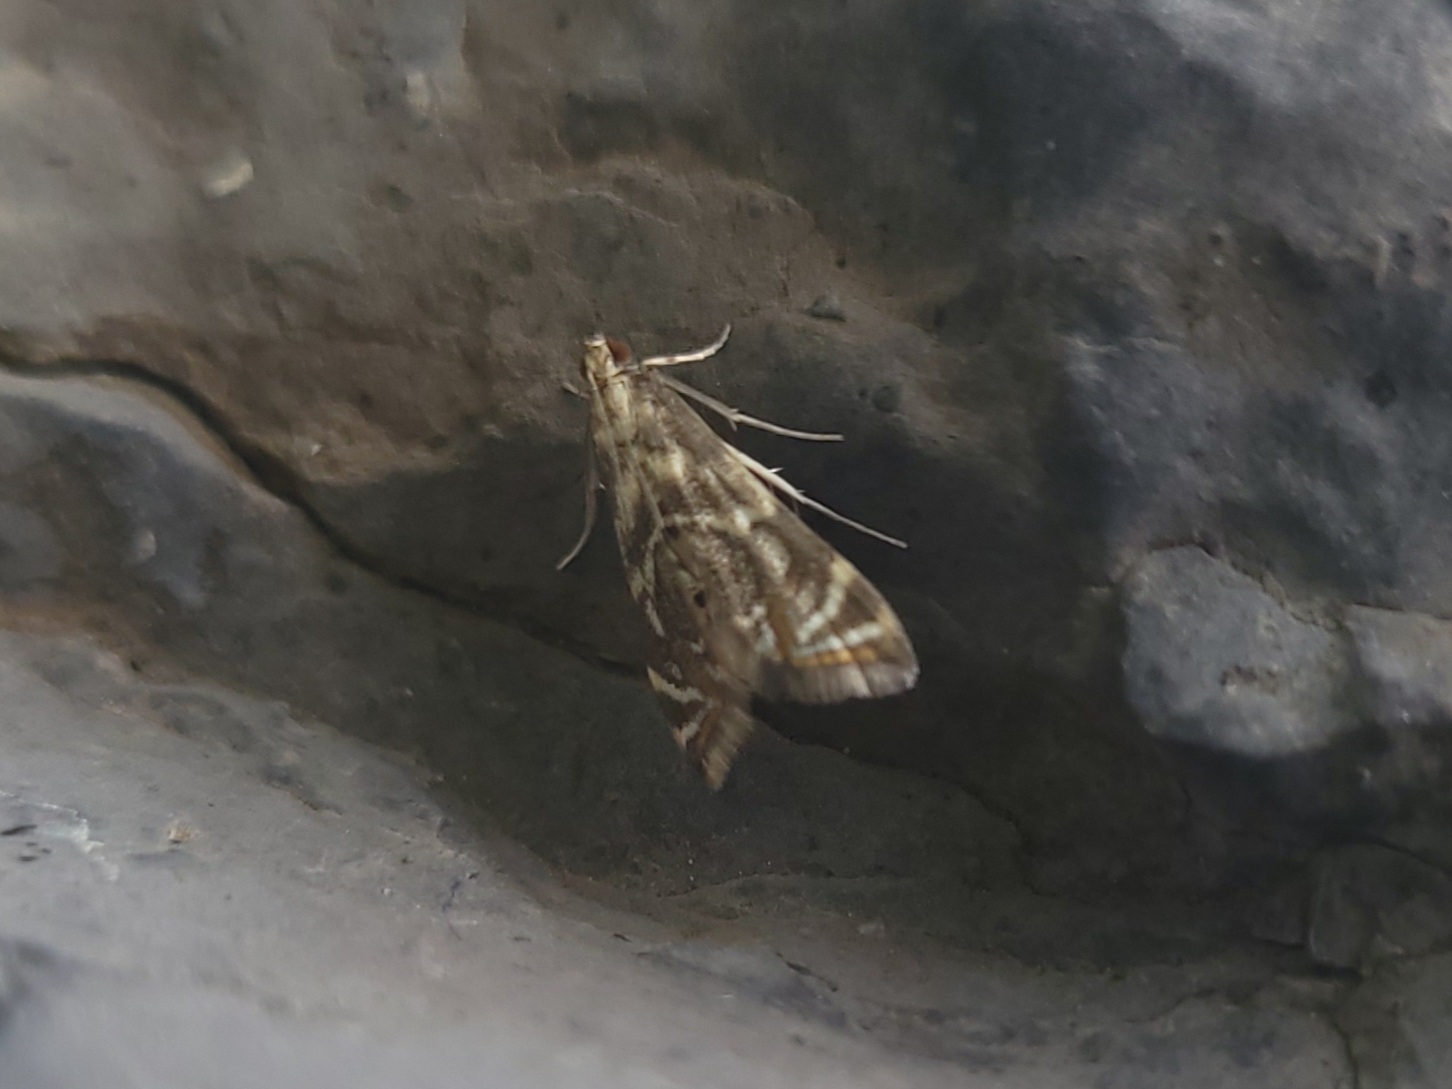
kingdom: Animalia
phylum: Arthropoda
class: Insecta
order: Lepidoptera
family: Crambidae
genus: Petrophila
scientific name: Petrophila canadensis
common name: Canadian petrophila
